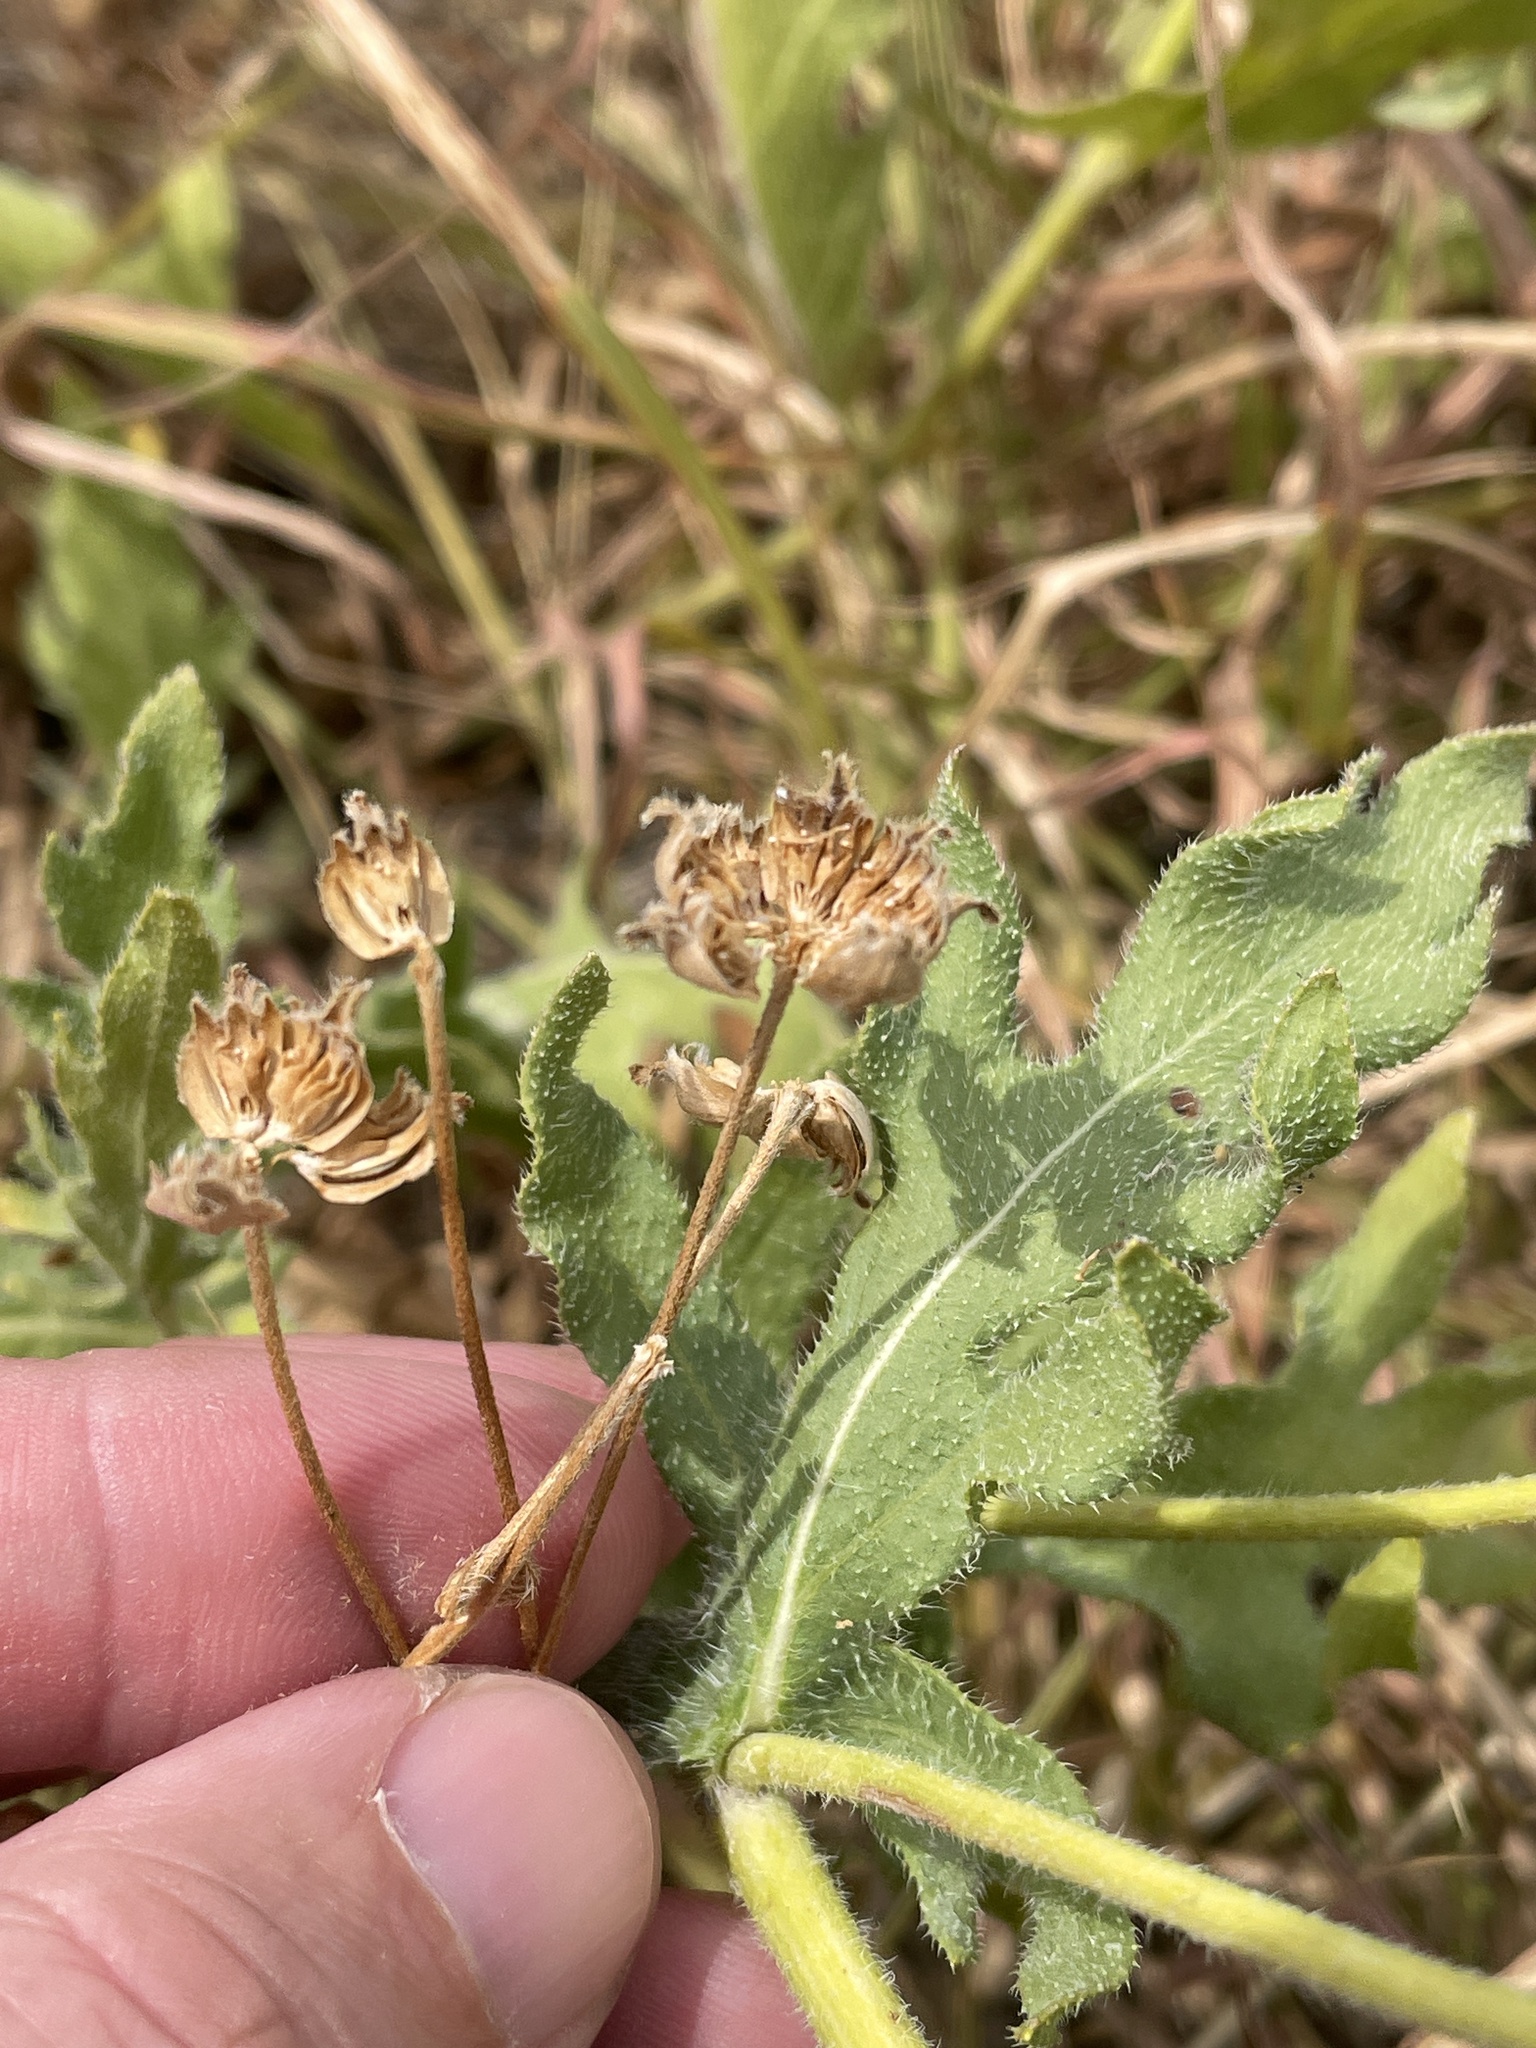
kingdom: Plantae
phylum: Tracheophyta
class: Magnoliopsida
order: Asterales
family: Asteraceae
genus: Engelmannia
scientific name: Engelmannia peristenia
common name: Engelmann's daisy
